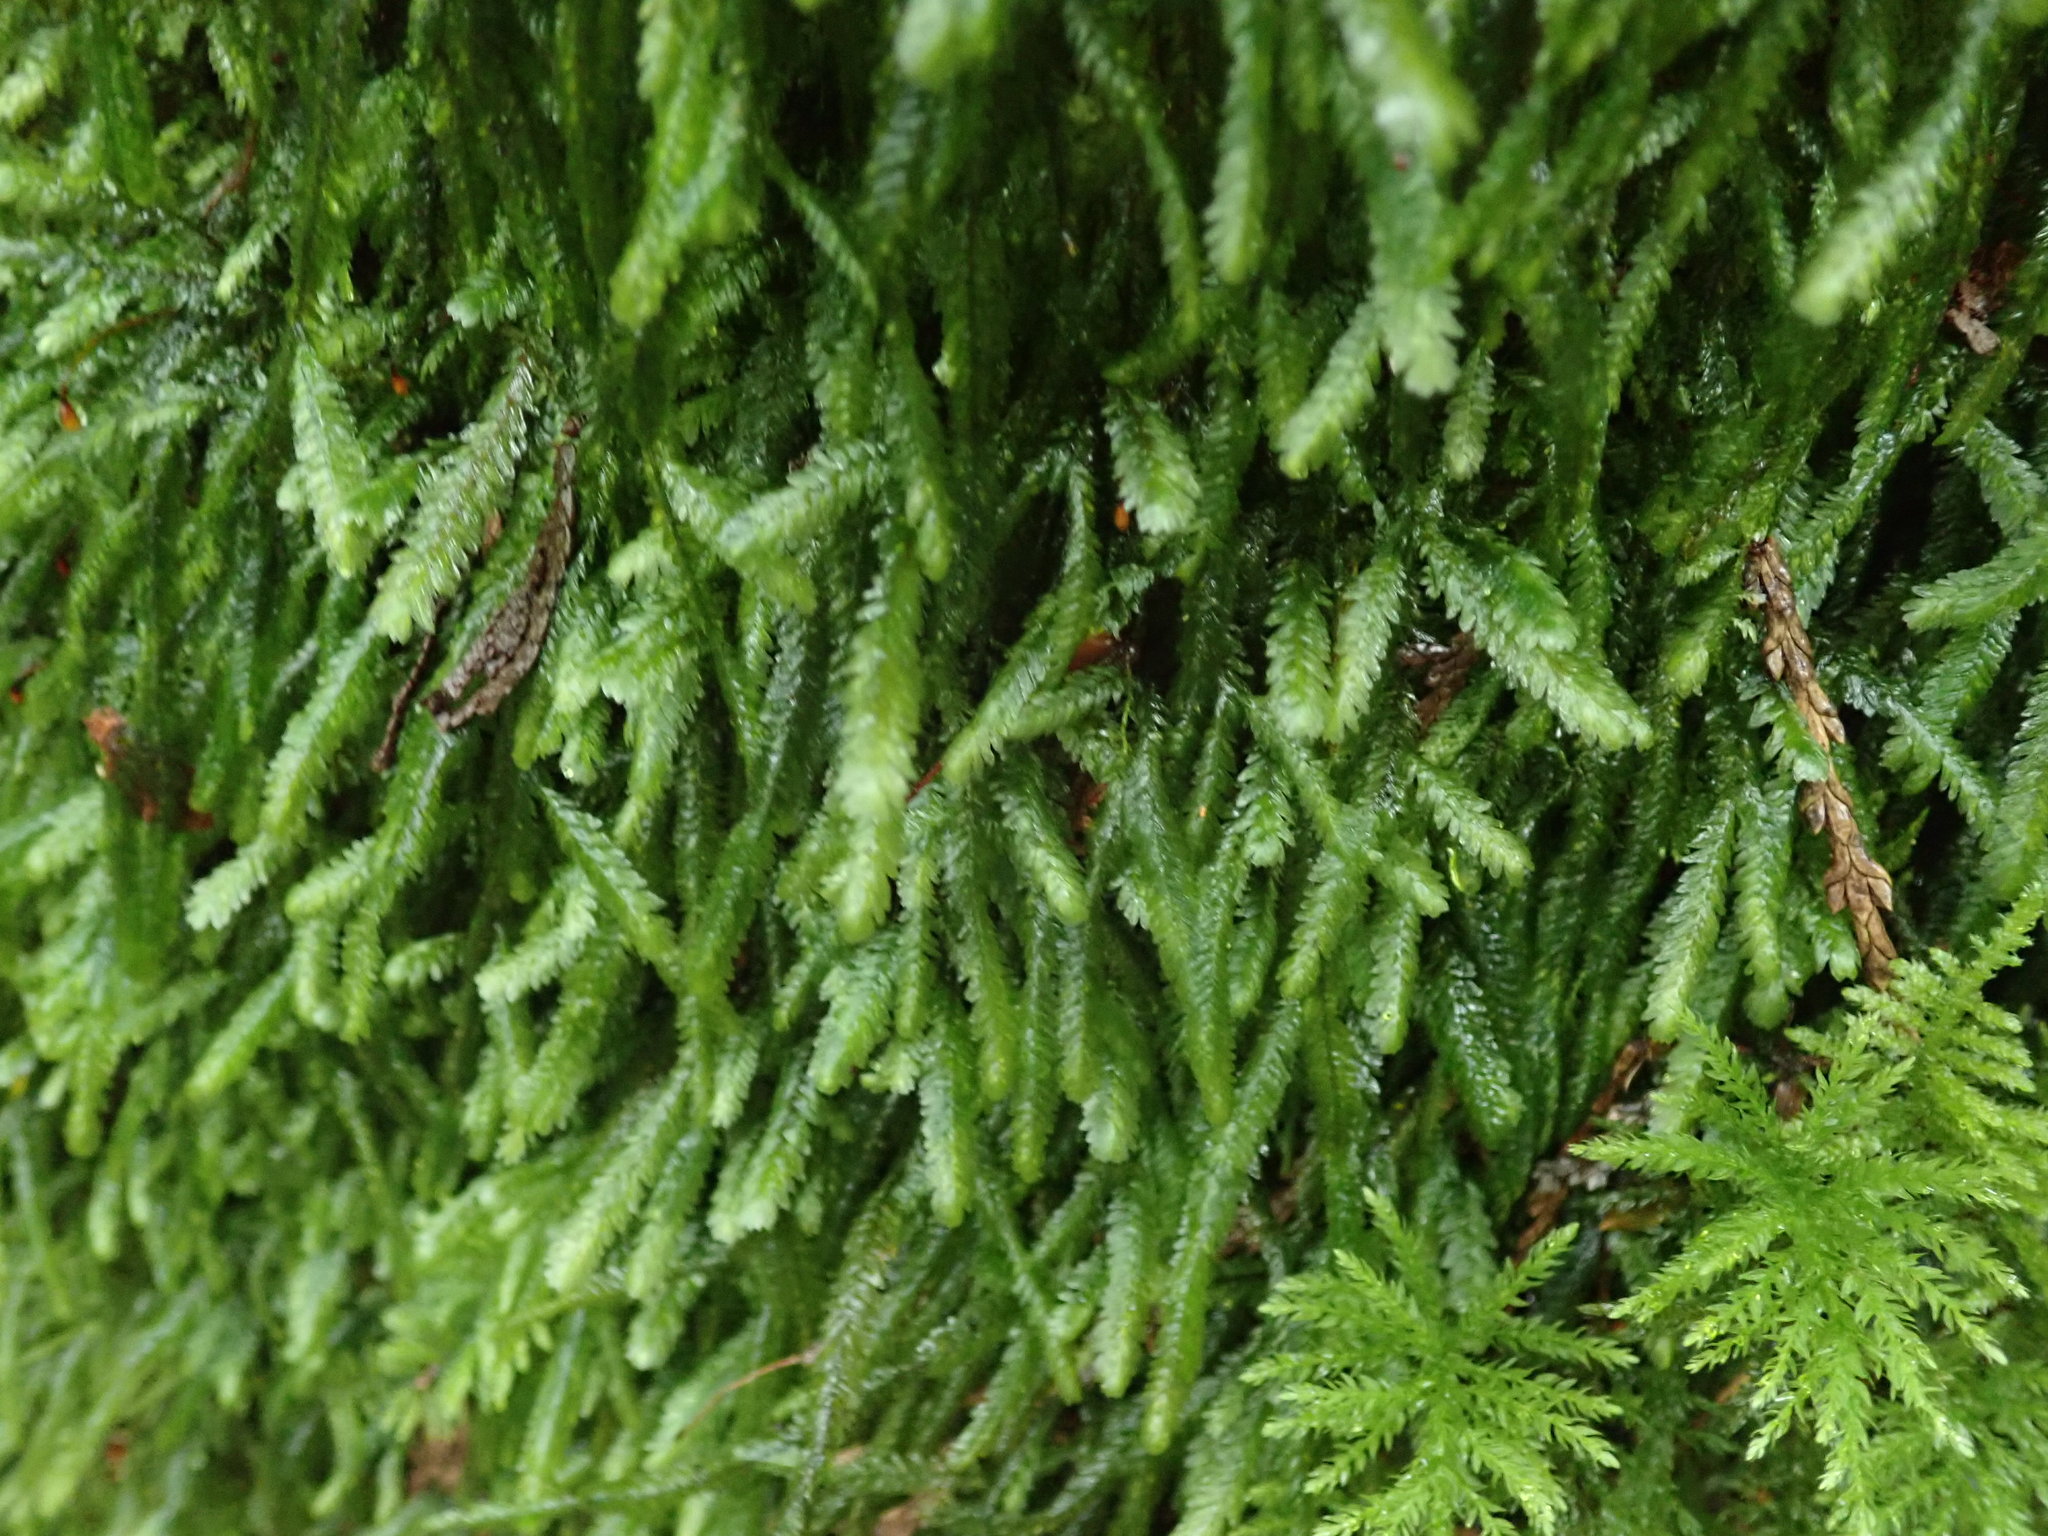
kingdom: Plantae
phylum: Bryophyta
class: Bryopsida
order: Hypnales
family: Neckeraceae
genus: Dannorrisia
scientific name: Dannorrisia bigelovii
